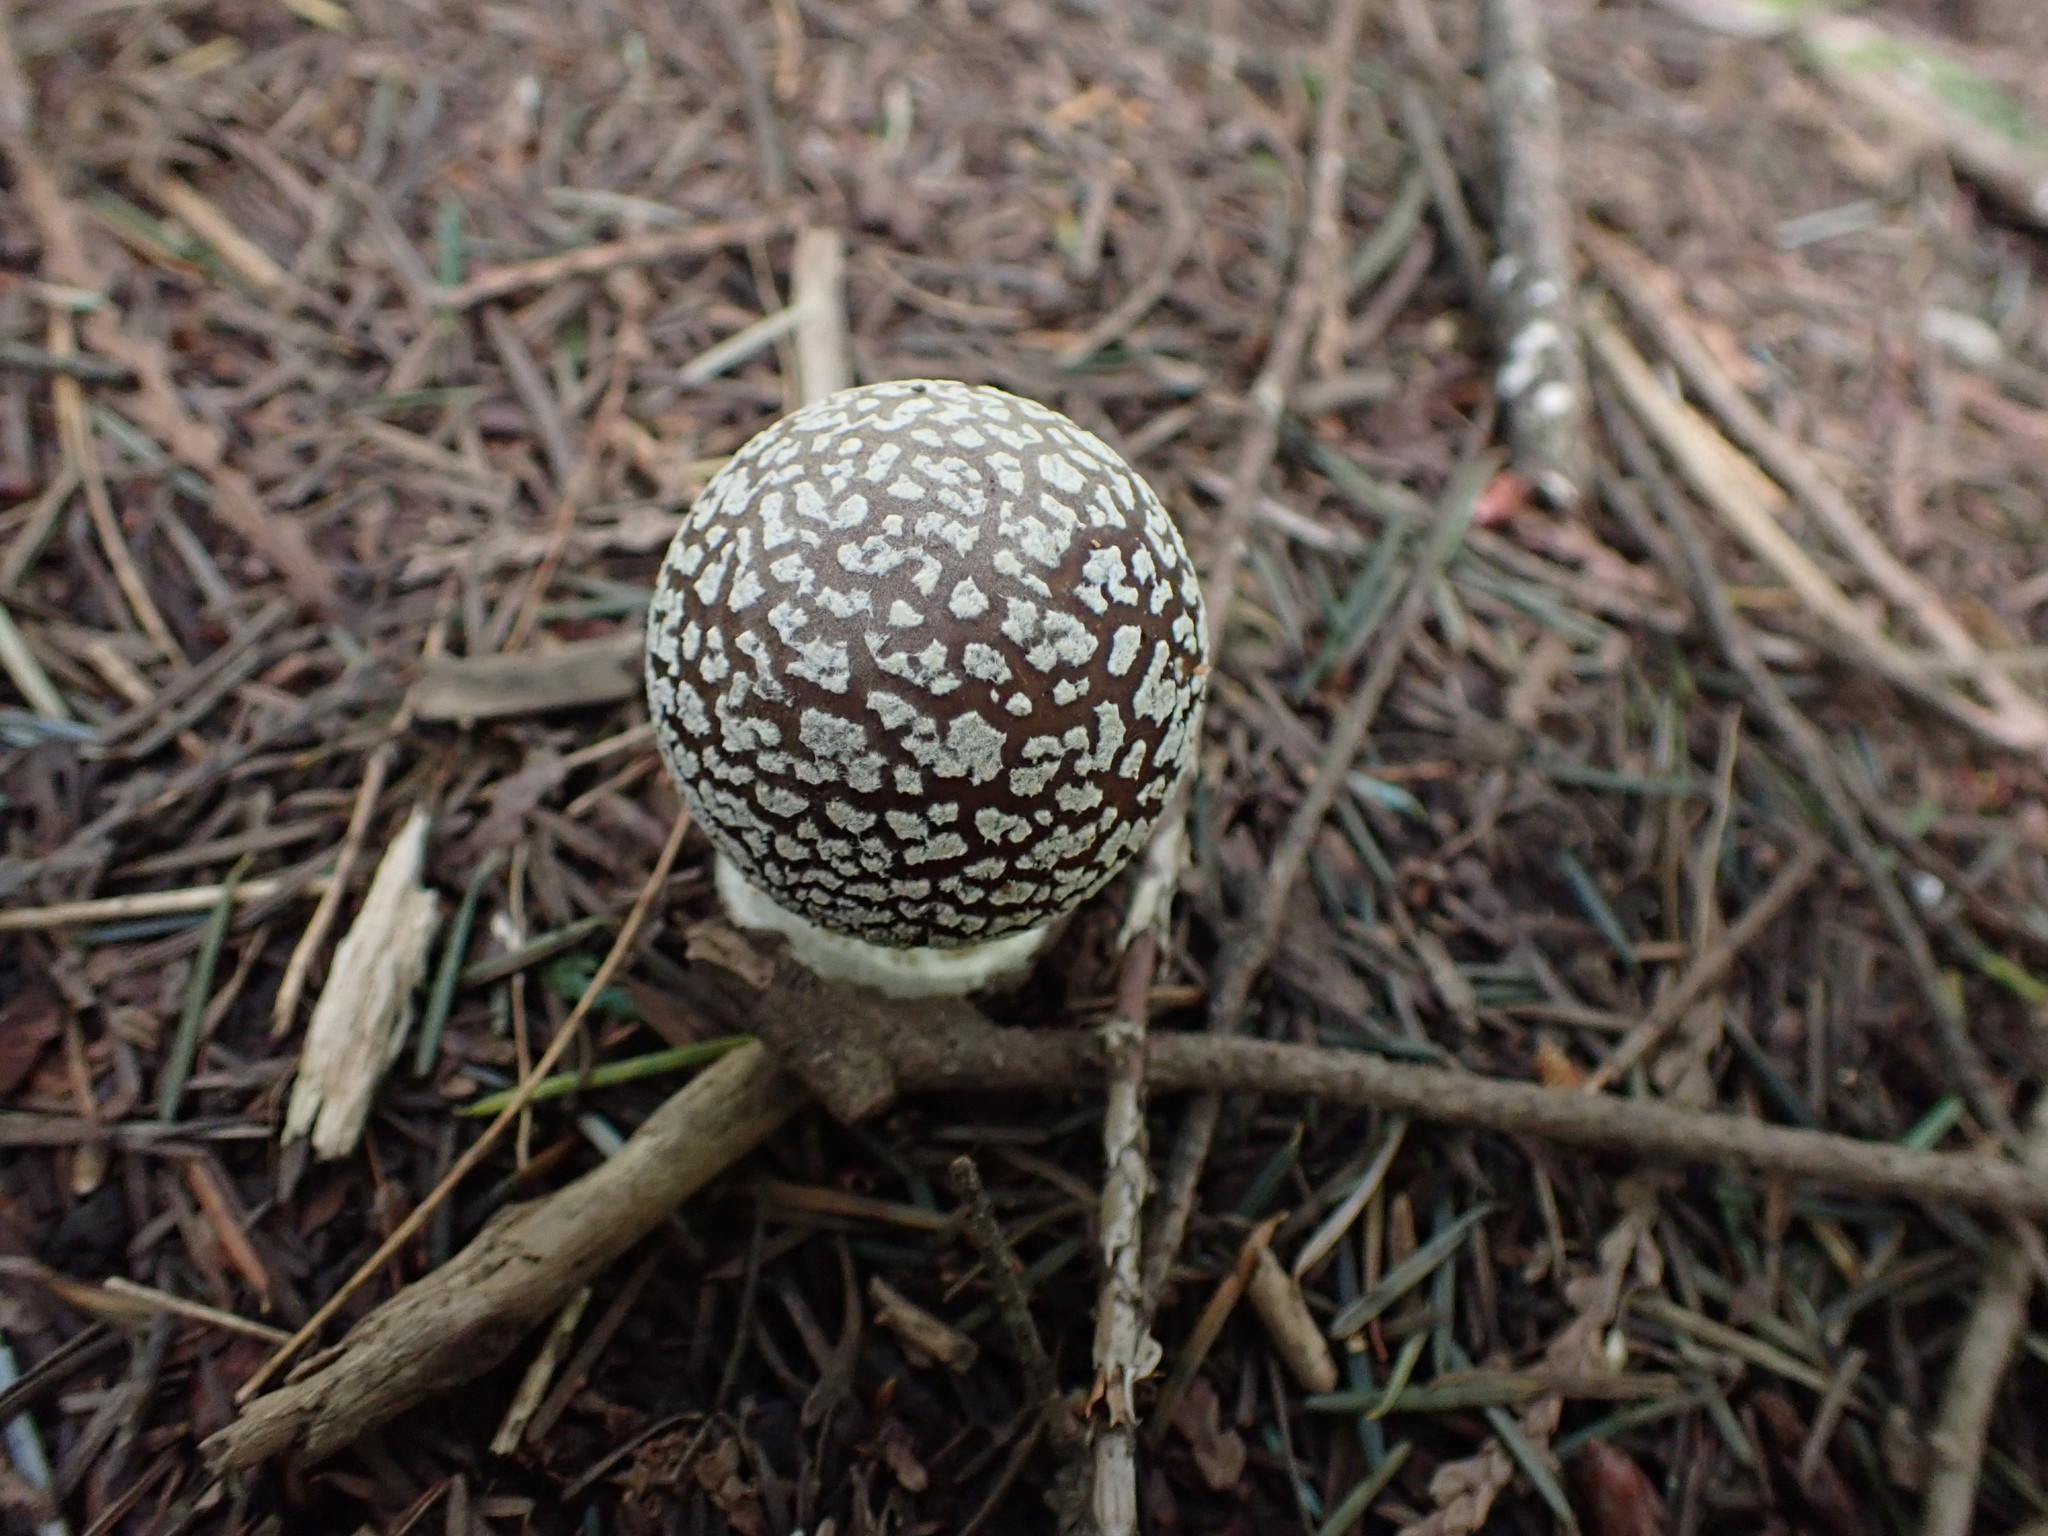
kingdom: Fungi
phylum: Basidiomycota
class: Agaricomycetes
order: Agaricales
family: Amanitaceae
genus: Amanita
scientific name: Amanita pantherinoides
